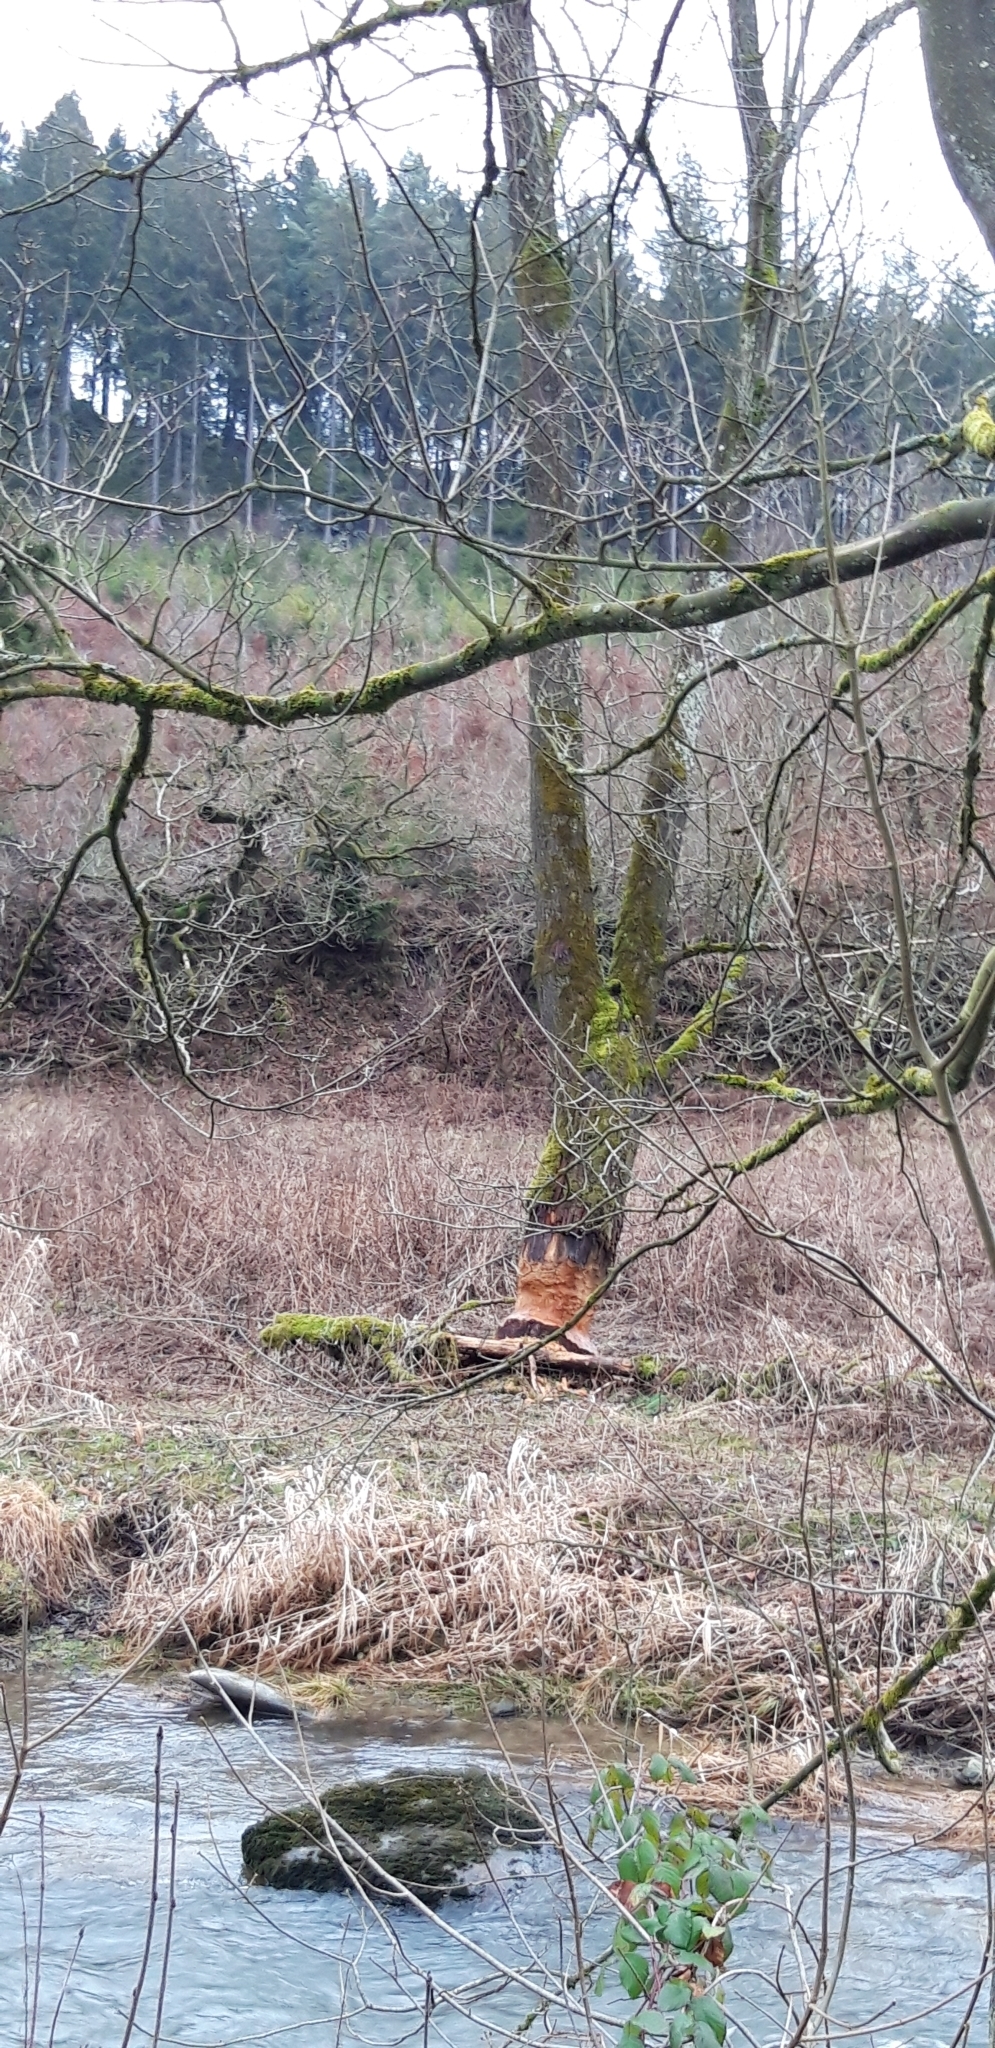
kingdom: Animalia
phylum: Chordata
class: Mammalia
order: Rodentia
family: Castoridae
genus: Castor
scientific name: Castor fiber
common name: Eurasian beaver
